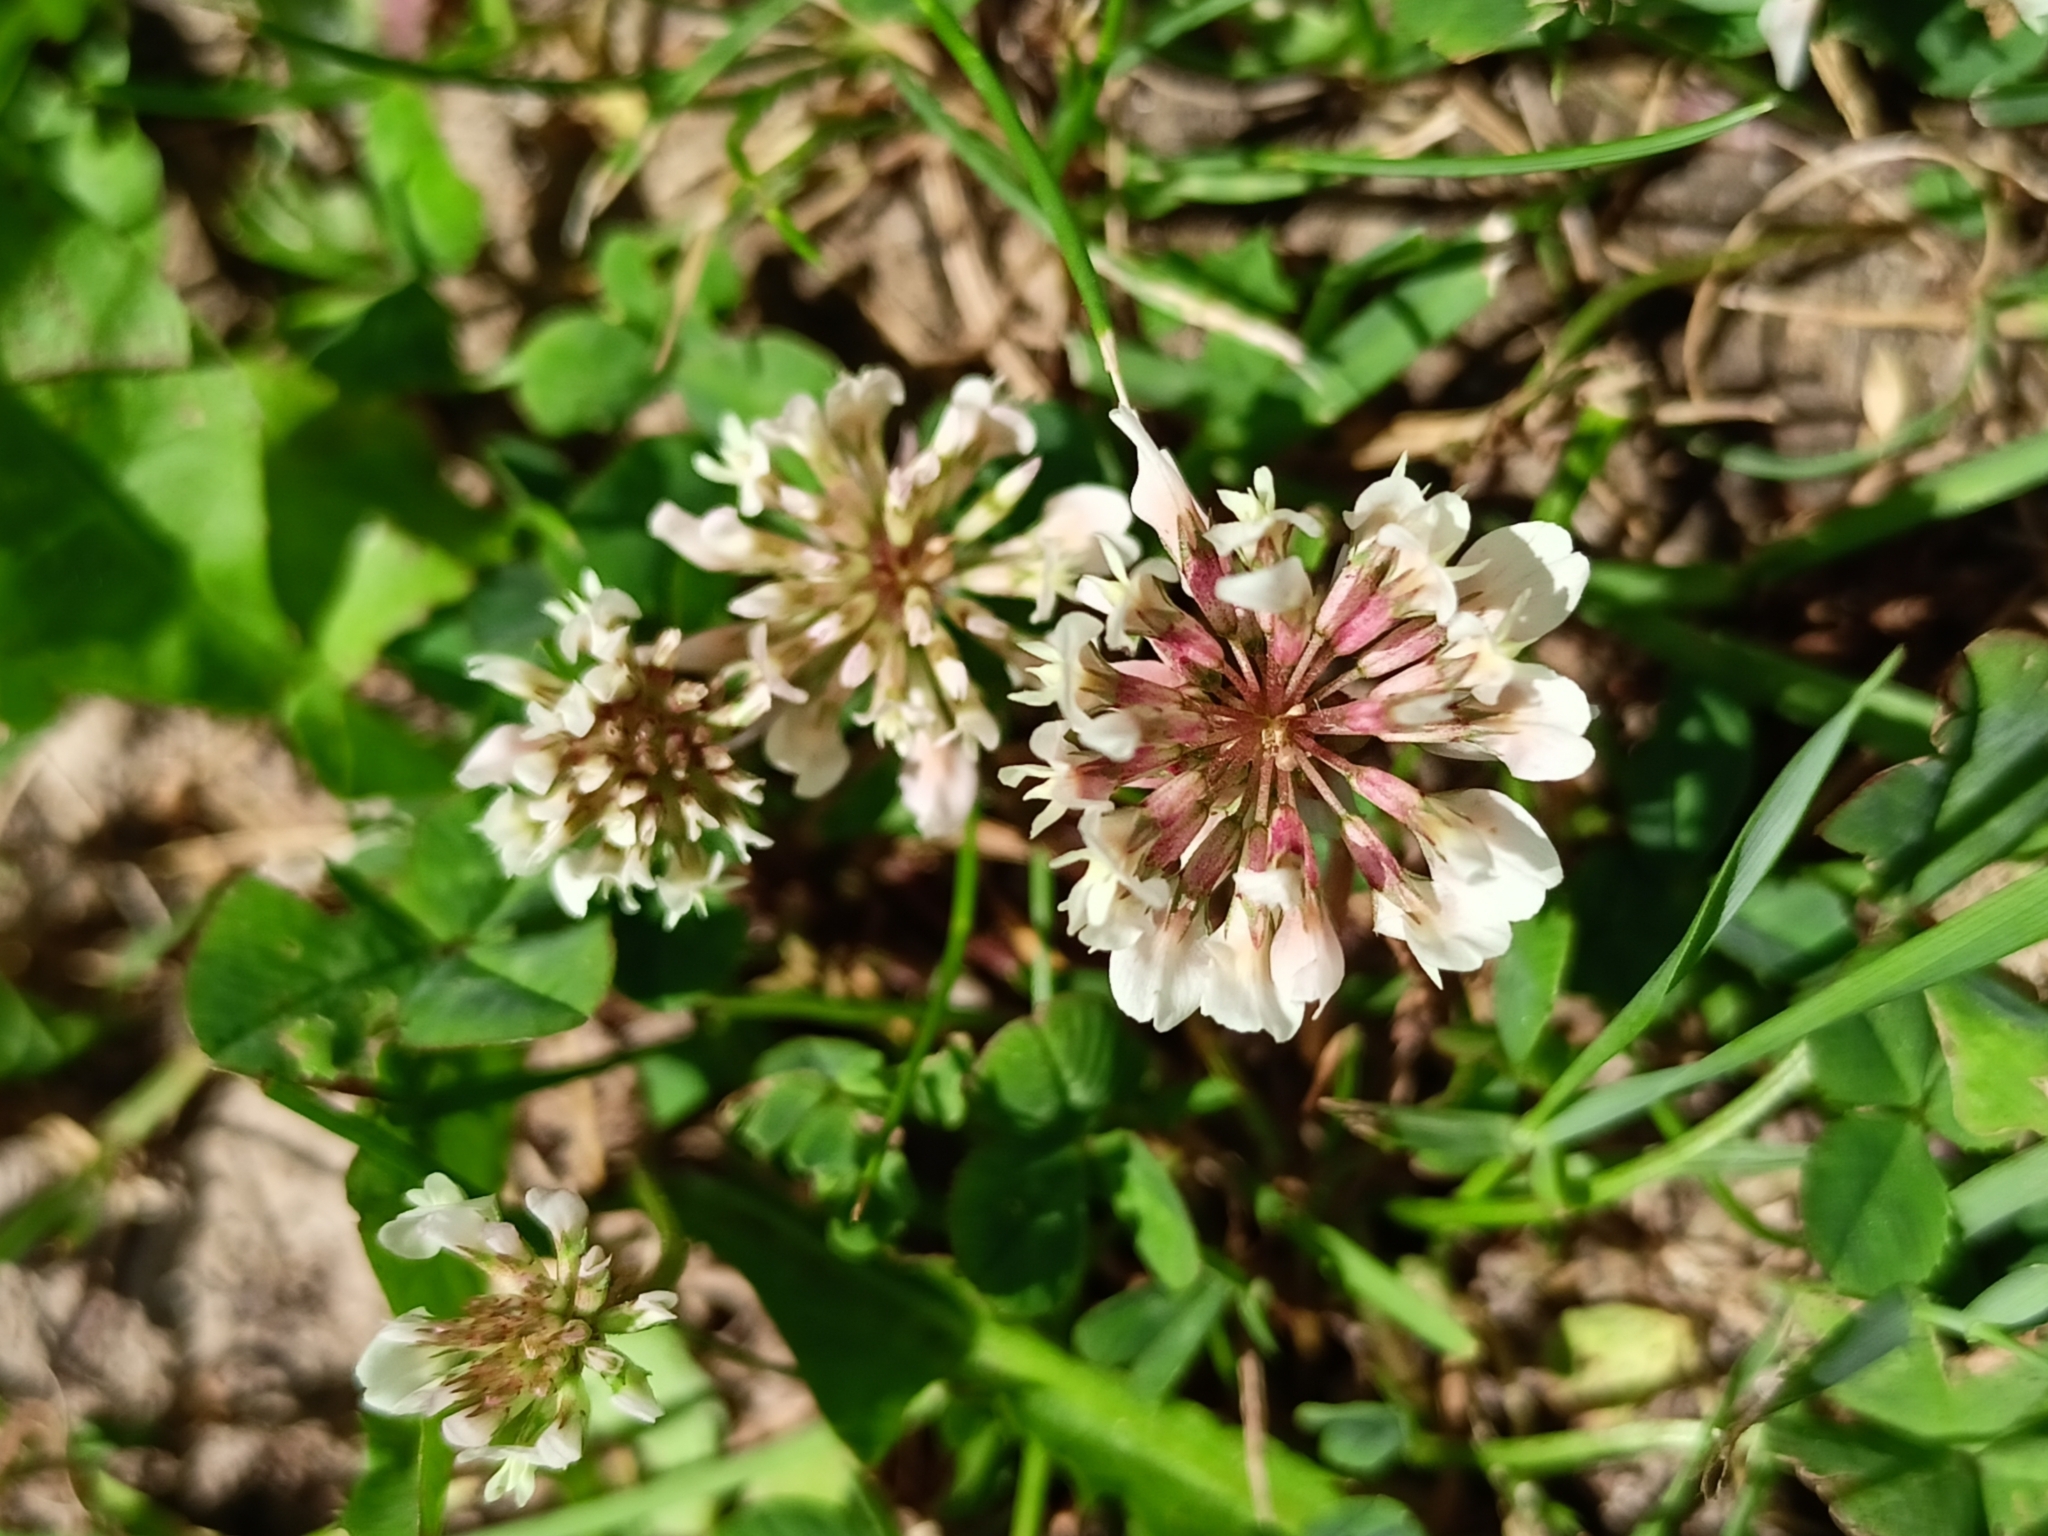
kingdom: Plantae
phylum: Tracheophyta
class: Magnoliopsida
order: Fabales
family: Fabaceae
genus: Trifolium
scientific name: Trifolium repens
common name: White clover
